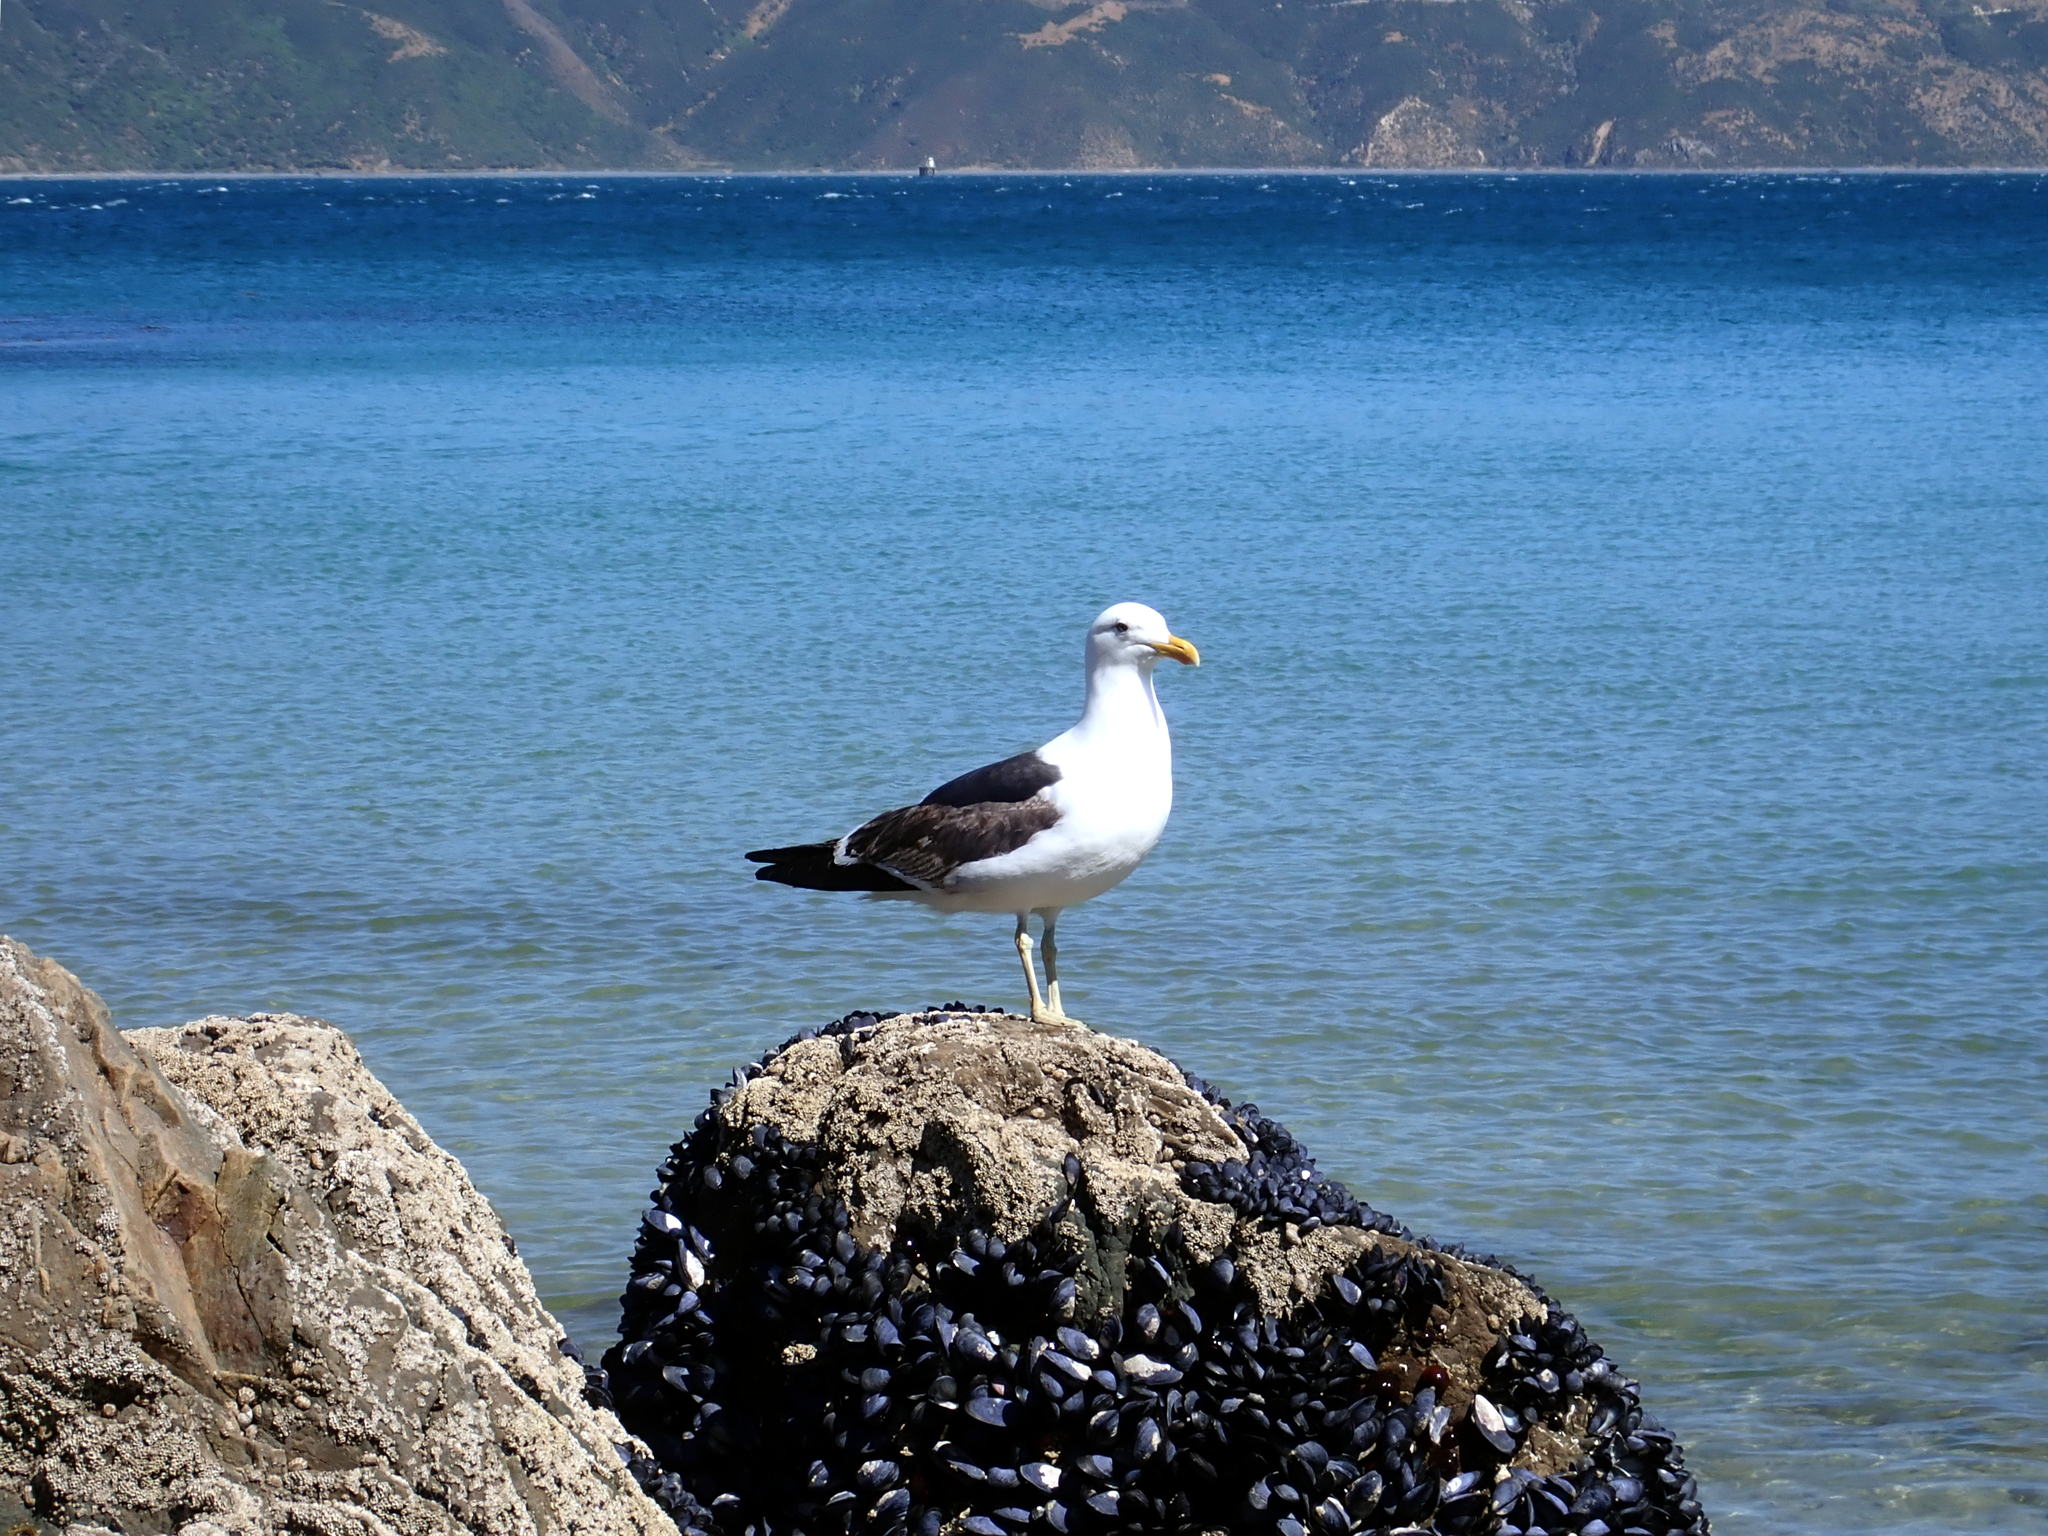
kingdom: Animalia
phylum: Chordata
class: Aves
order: Charadriiformes
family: Laridae
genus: Larus
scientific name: Larus dominicanus
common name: Kelp gull
